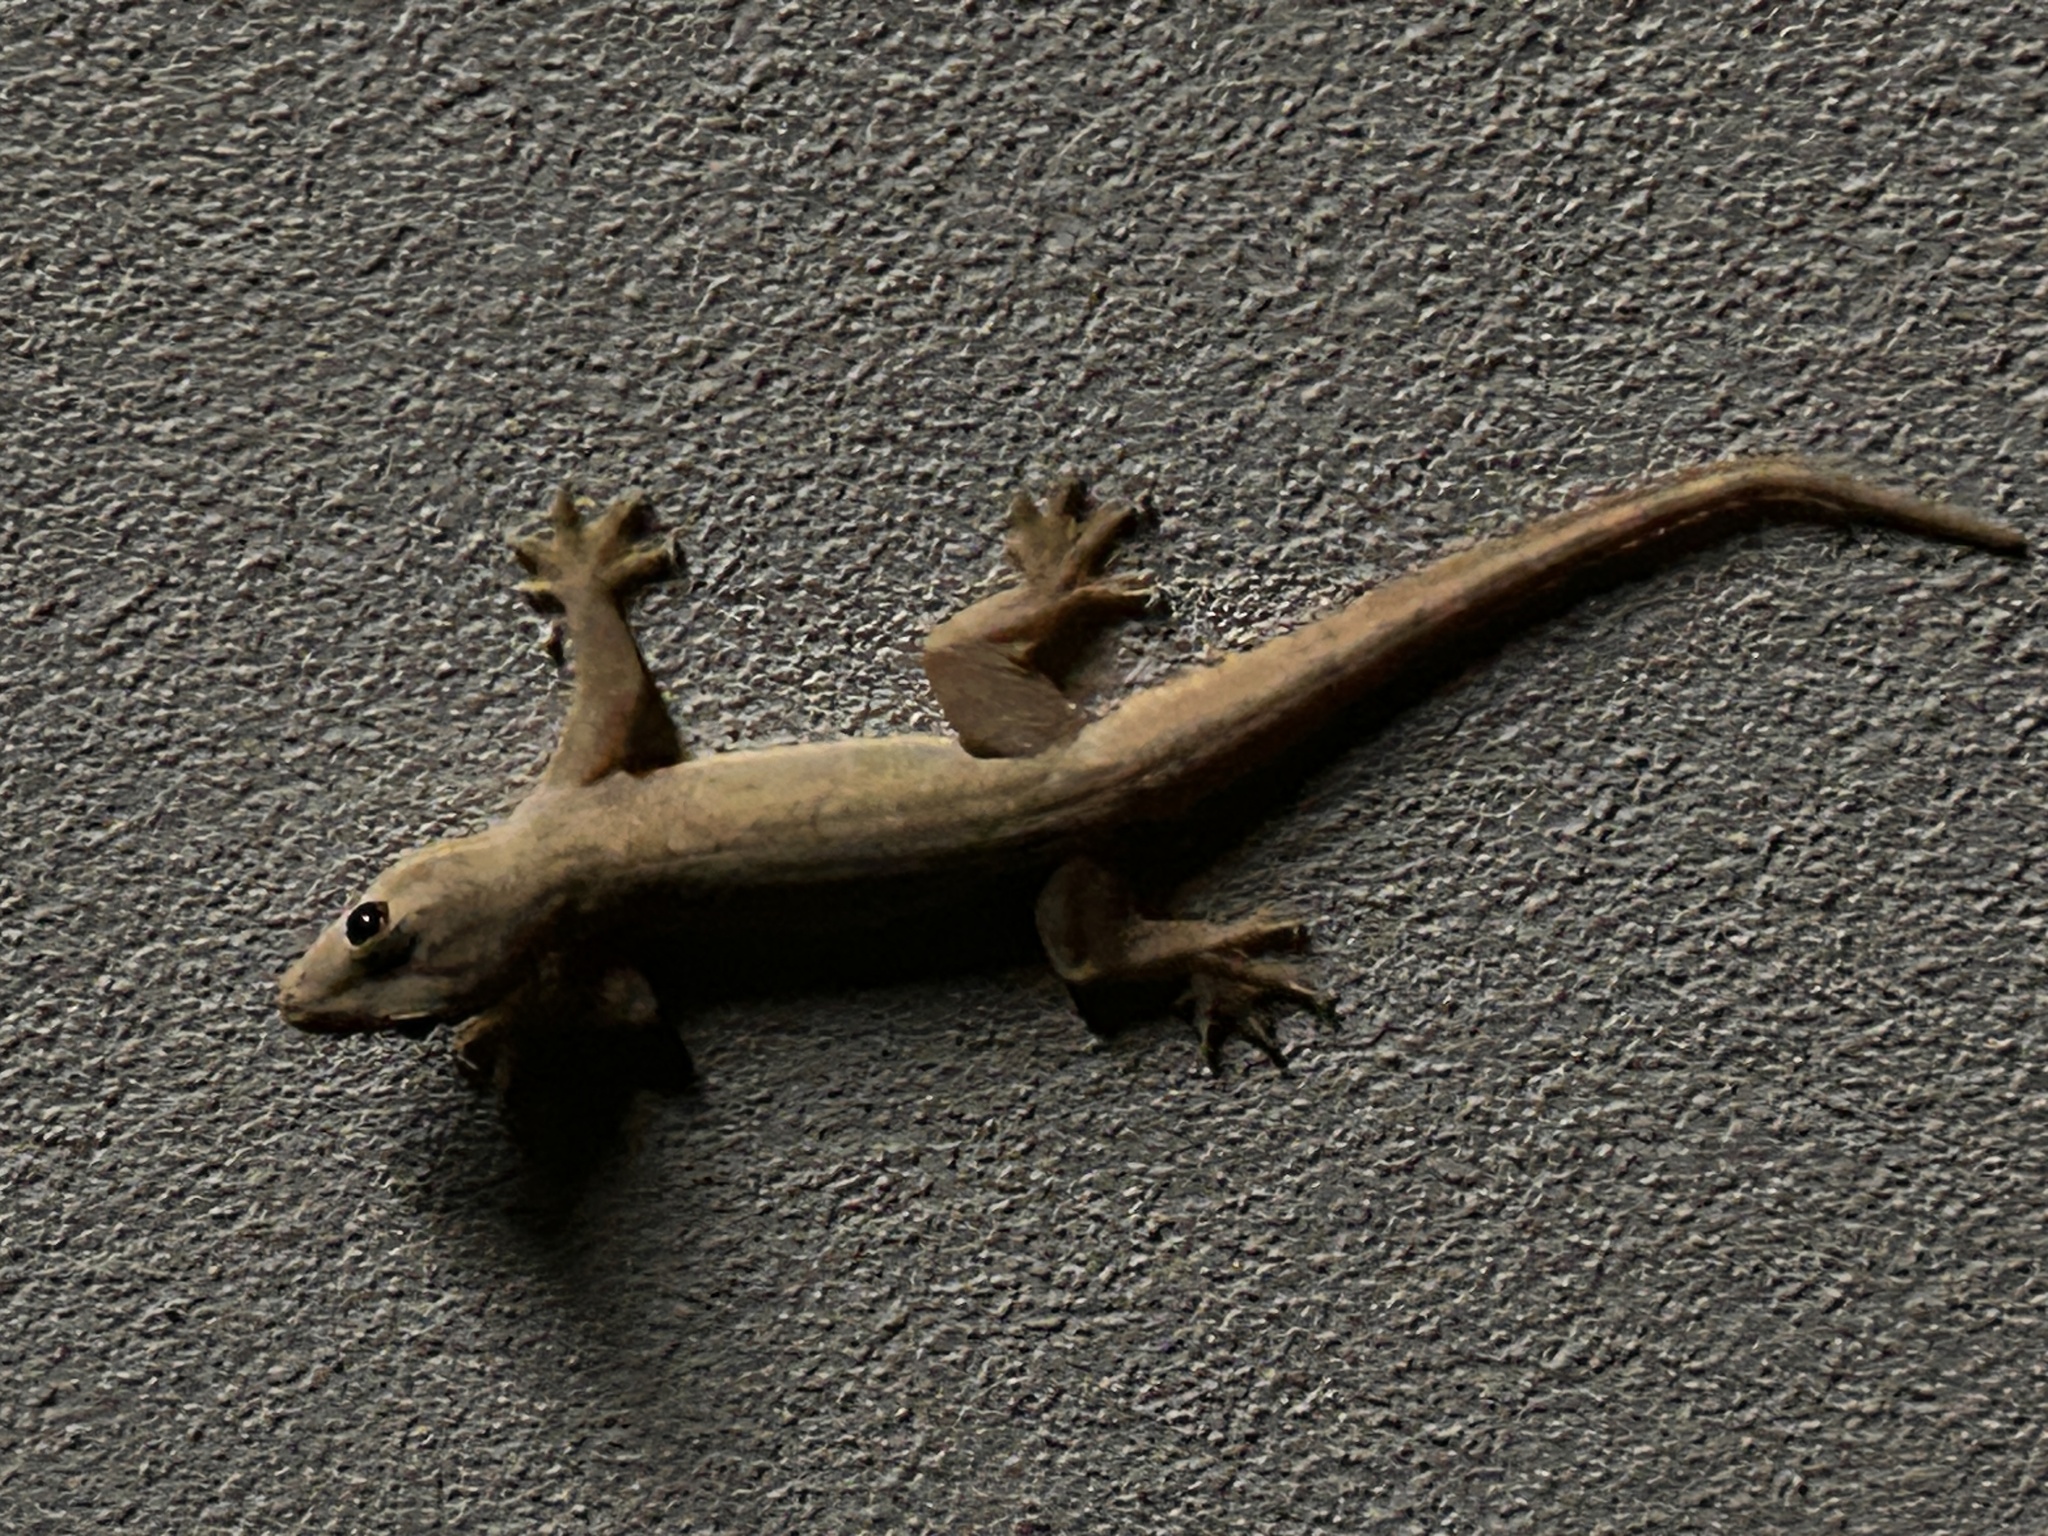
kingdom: Animalia
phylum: Chordata
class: Squamata
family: Gekkonidae
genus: Hemidactylus
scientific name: Hemidactylus platyurus
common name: Flat-tailed house gecko
